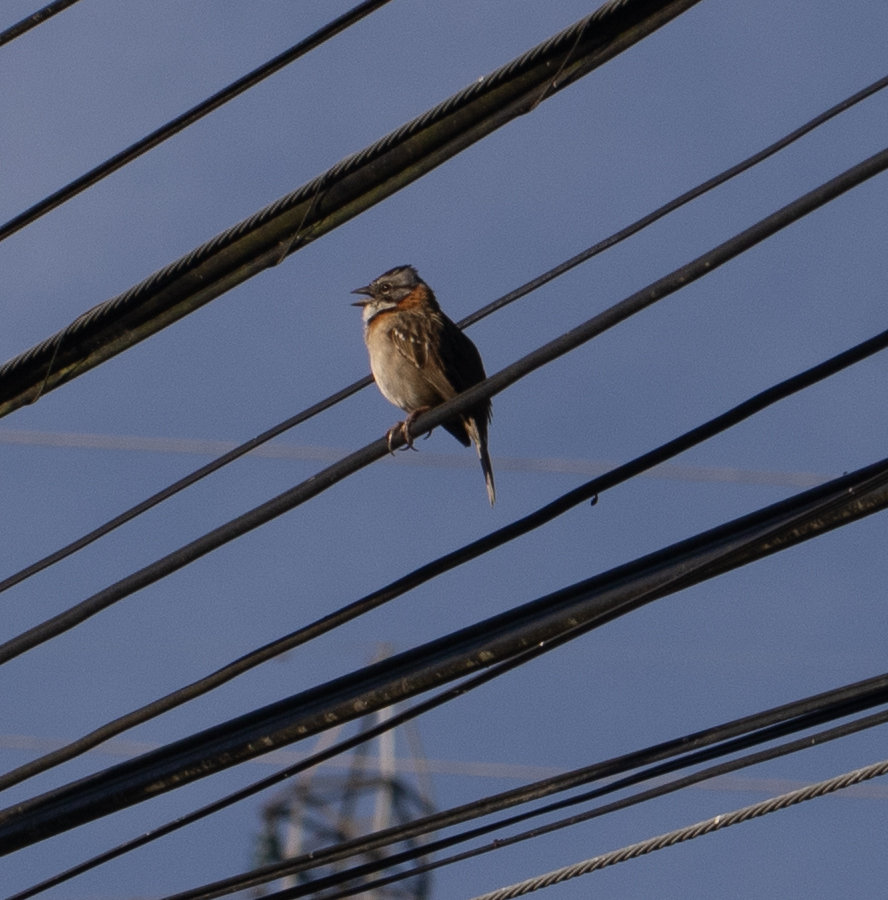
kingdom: Animalia
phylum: Chordata
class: Aves
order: Passeriformes
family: Passerellidae
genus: Zonotrichia
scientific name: Zonotrichia capensis
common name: Rufous-collared sparrow
